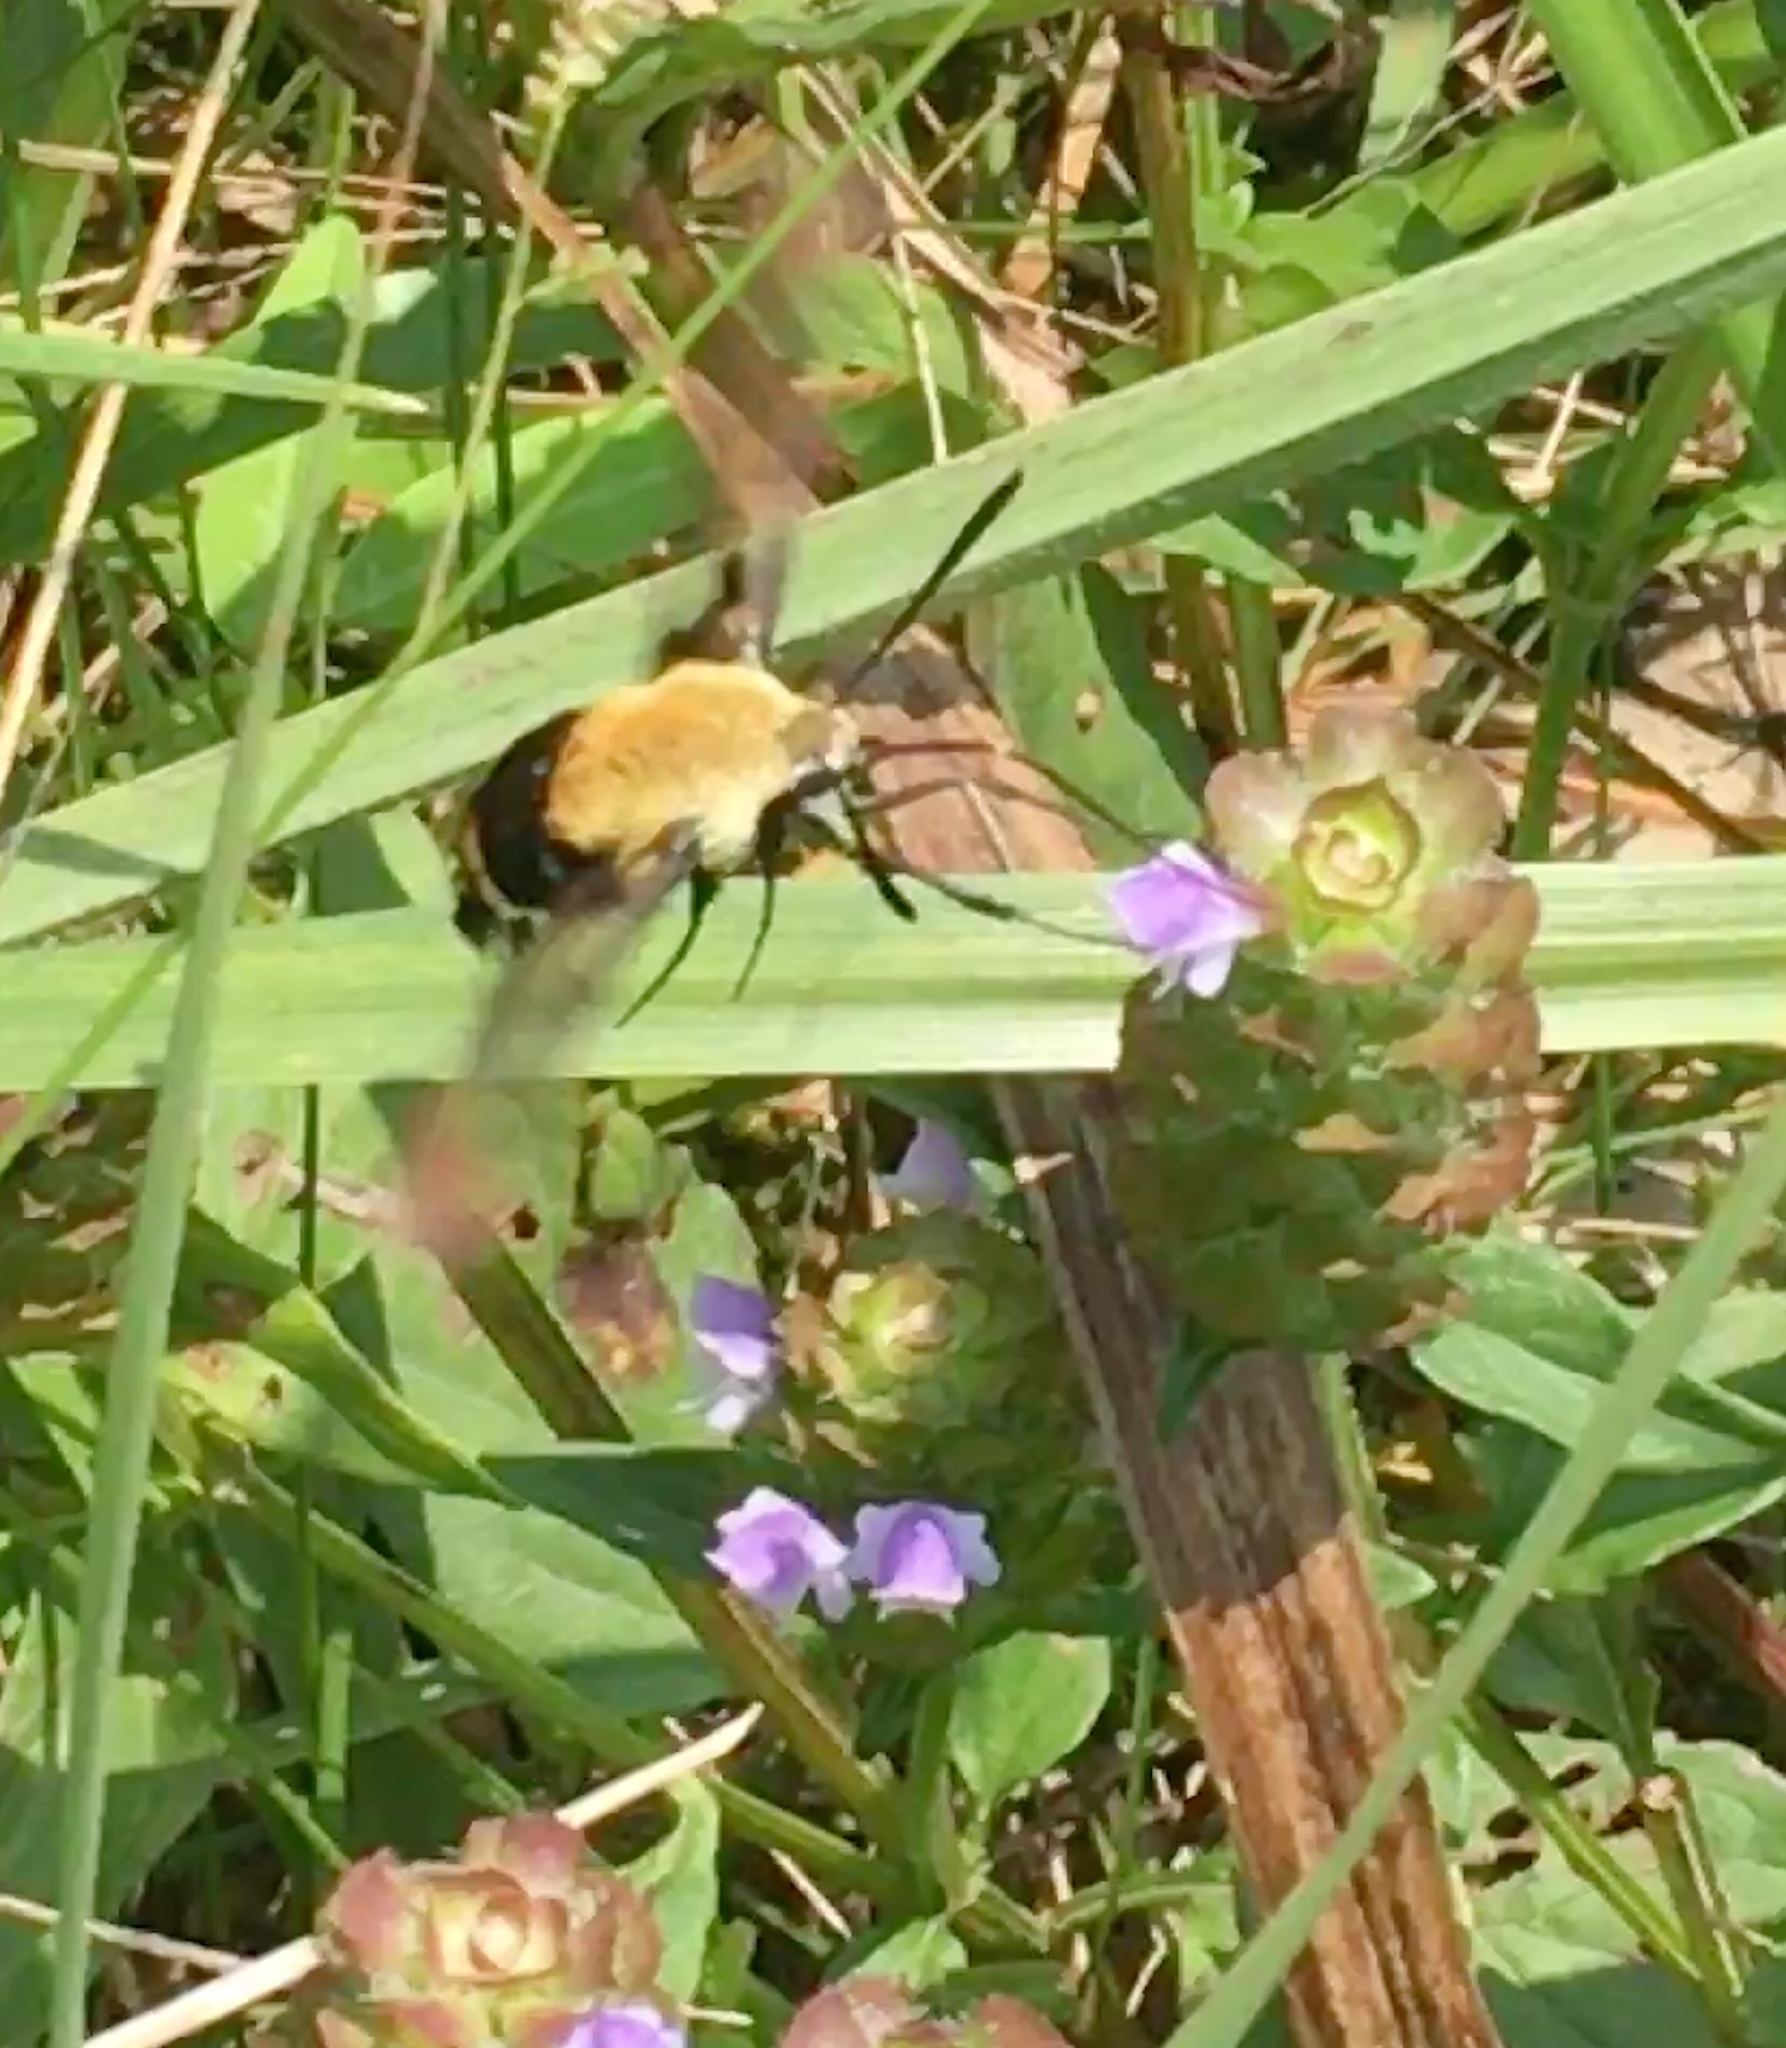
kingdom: Animalia
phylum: Arthropoda
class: Insecta
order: Lepidoptera
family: Sphingidae
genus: Hemaris
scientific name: Hemaris diffinis
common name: Bumblebee moth
